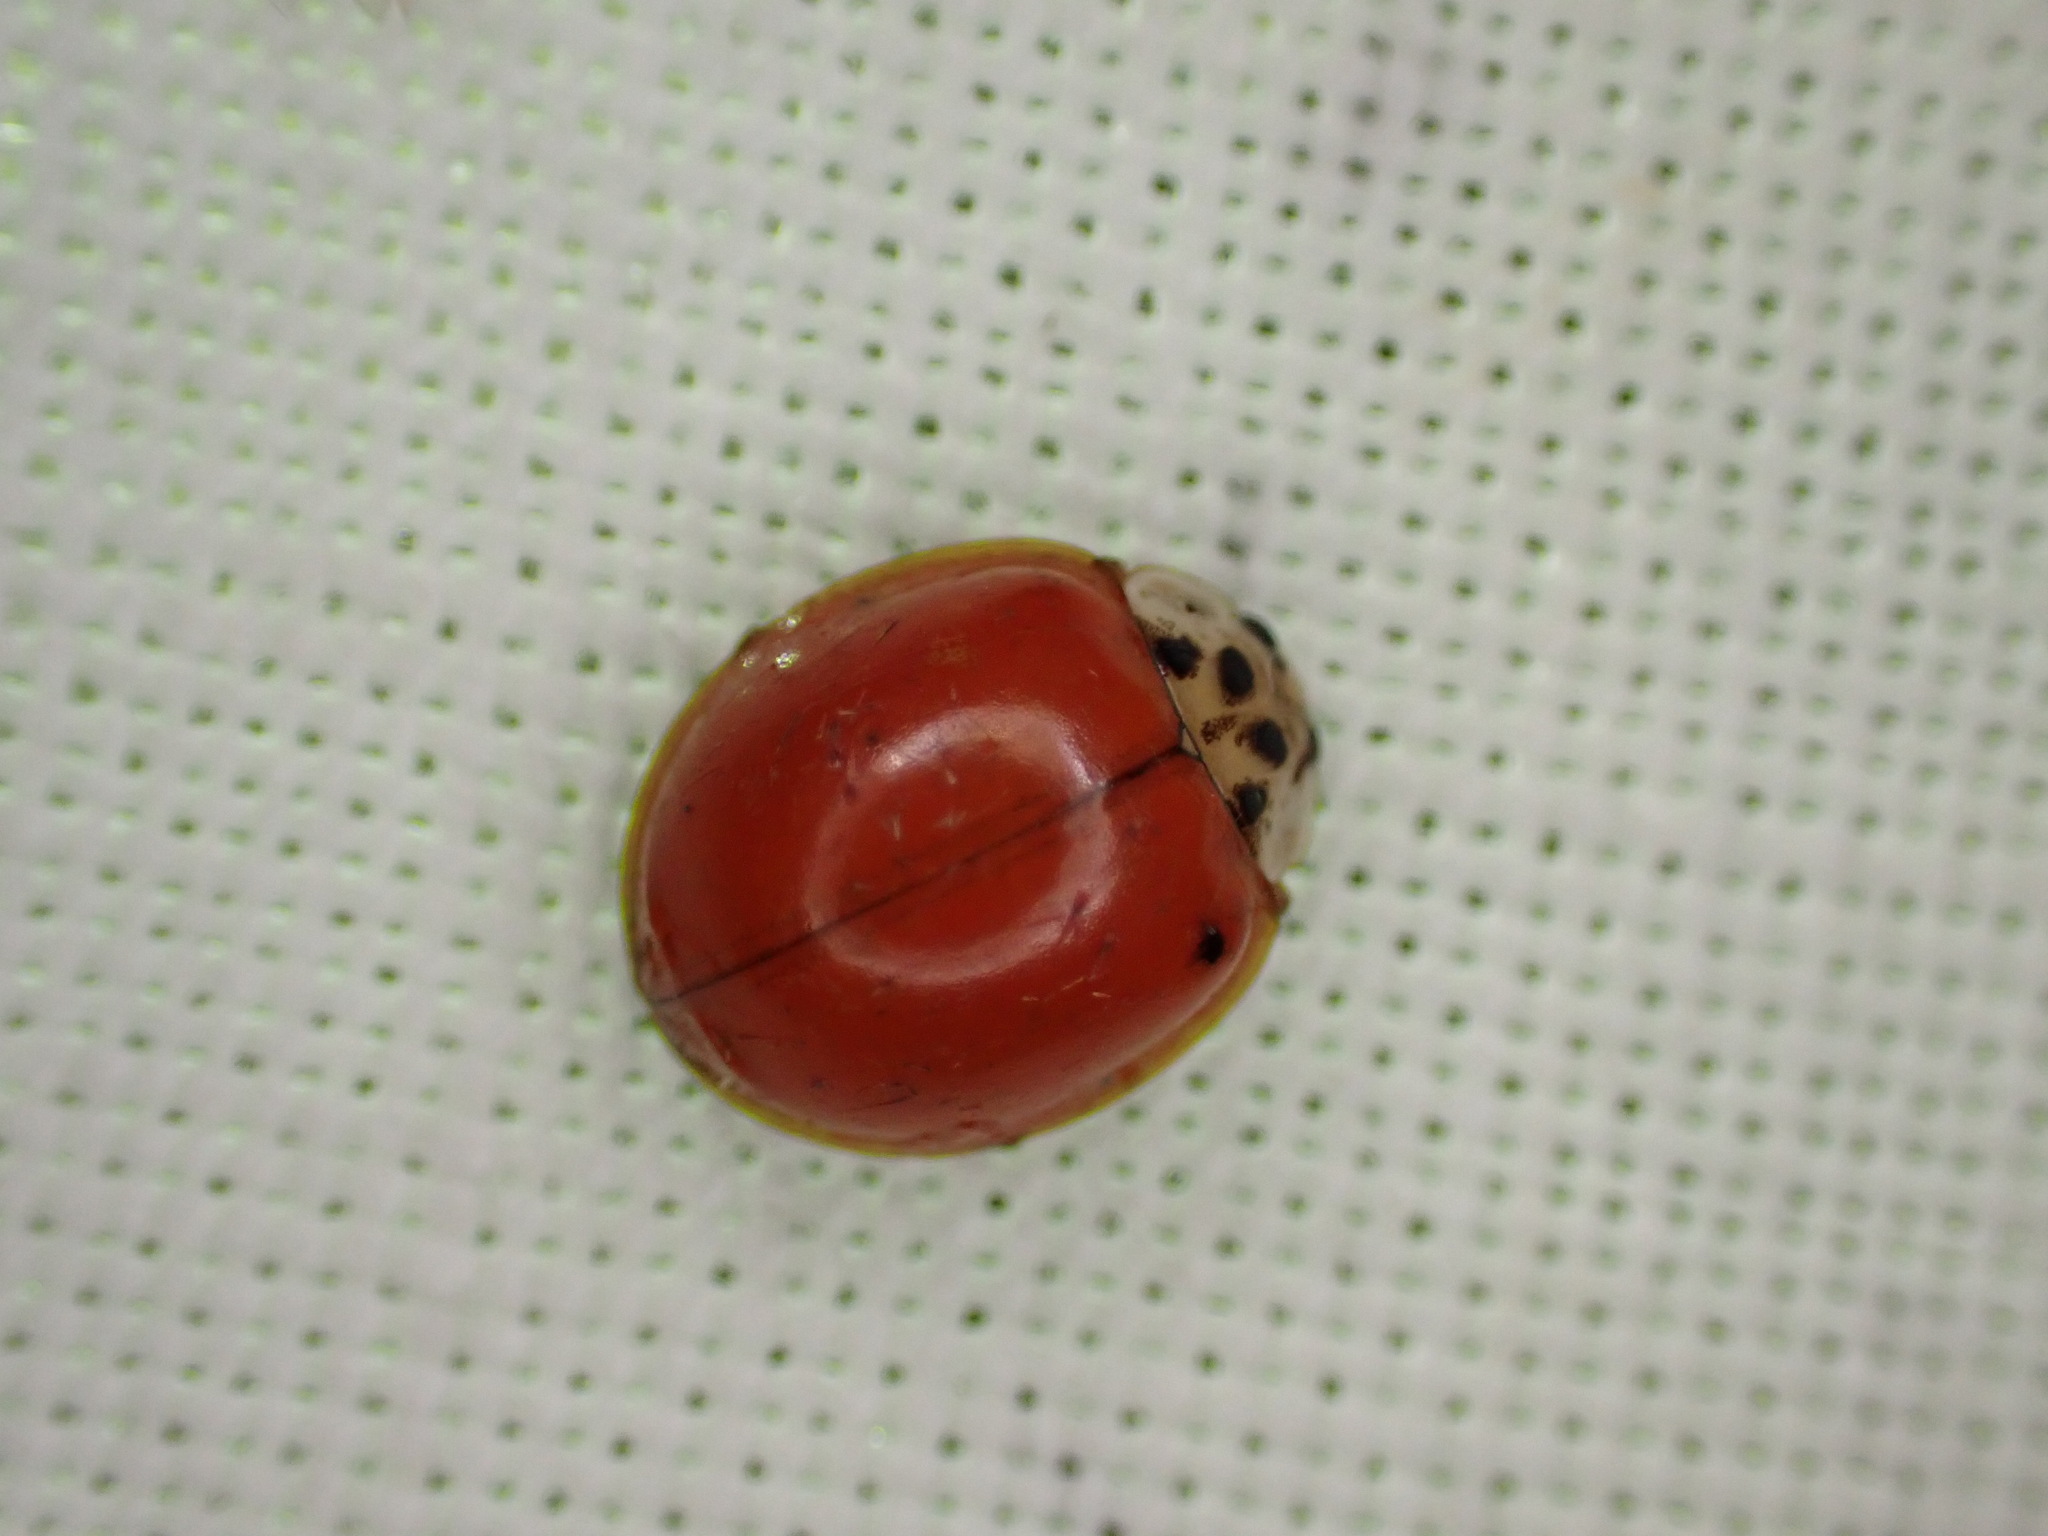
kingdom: Animalia
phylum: Arthropoda
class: Insecta
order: Coleoptera
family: Coccinellidae
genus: Harmonia
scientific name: Harmonia axyridis
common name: Harlequin ladybird
